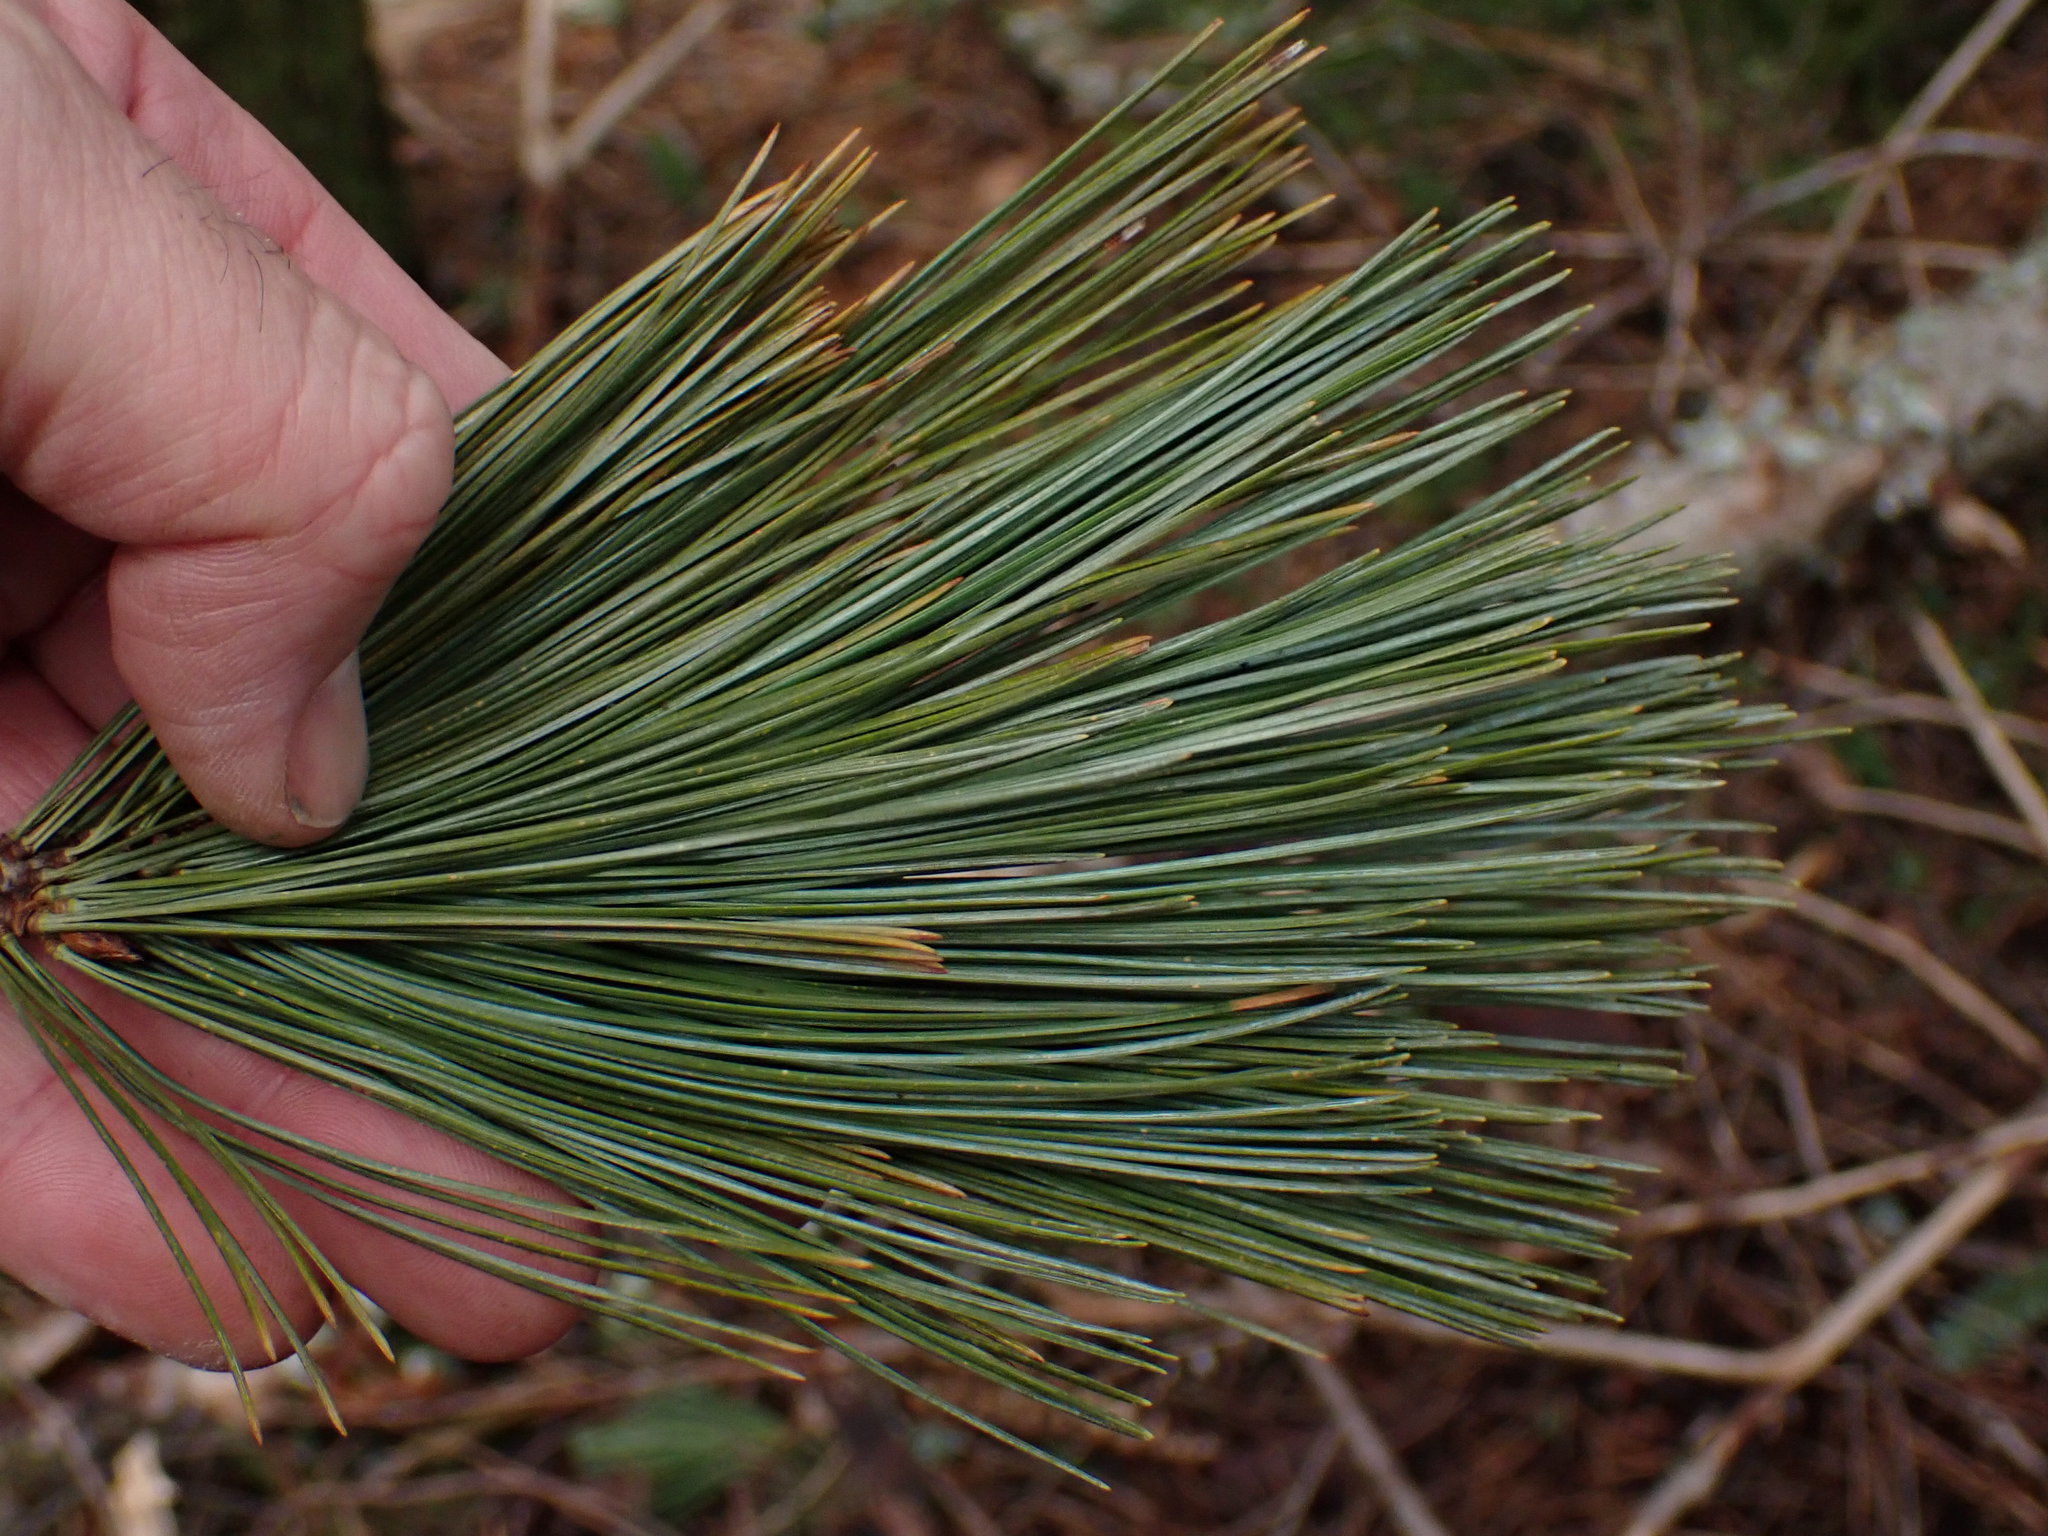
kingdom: Plantae
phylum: Tracheophyta
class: Pinopsida
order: Pinales
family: Pinaceae
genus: Pinus
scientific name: Pinus monticola
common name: Western white pine
